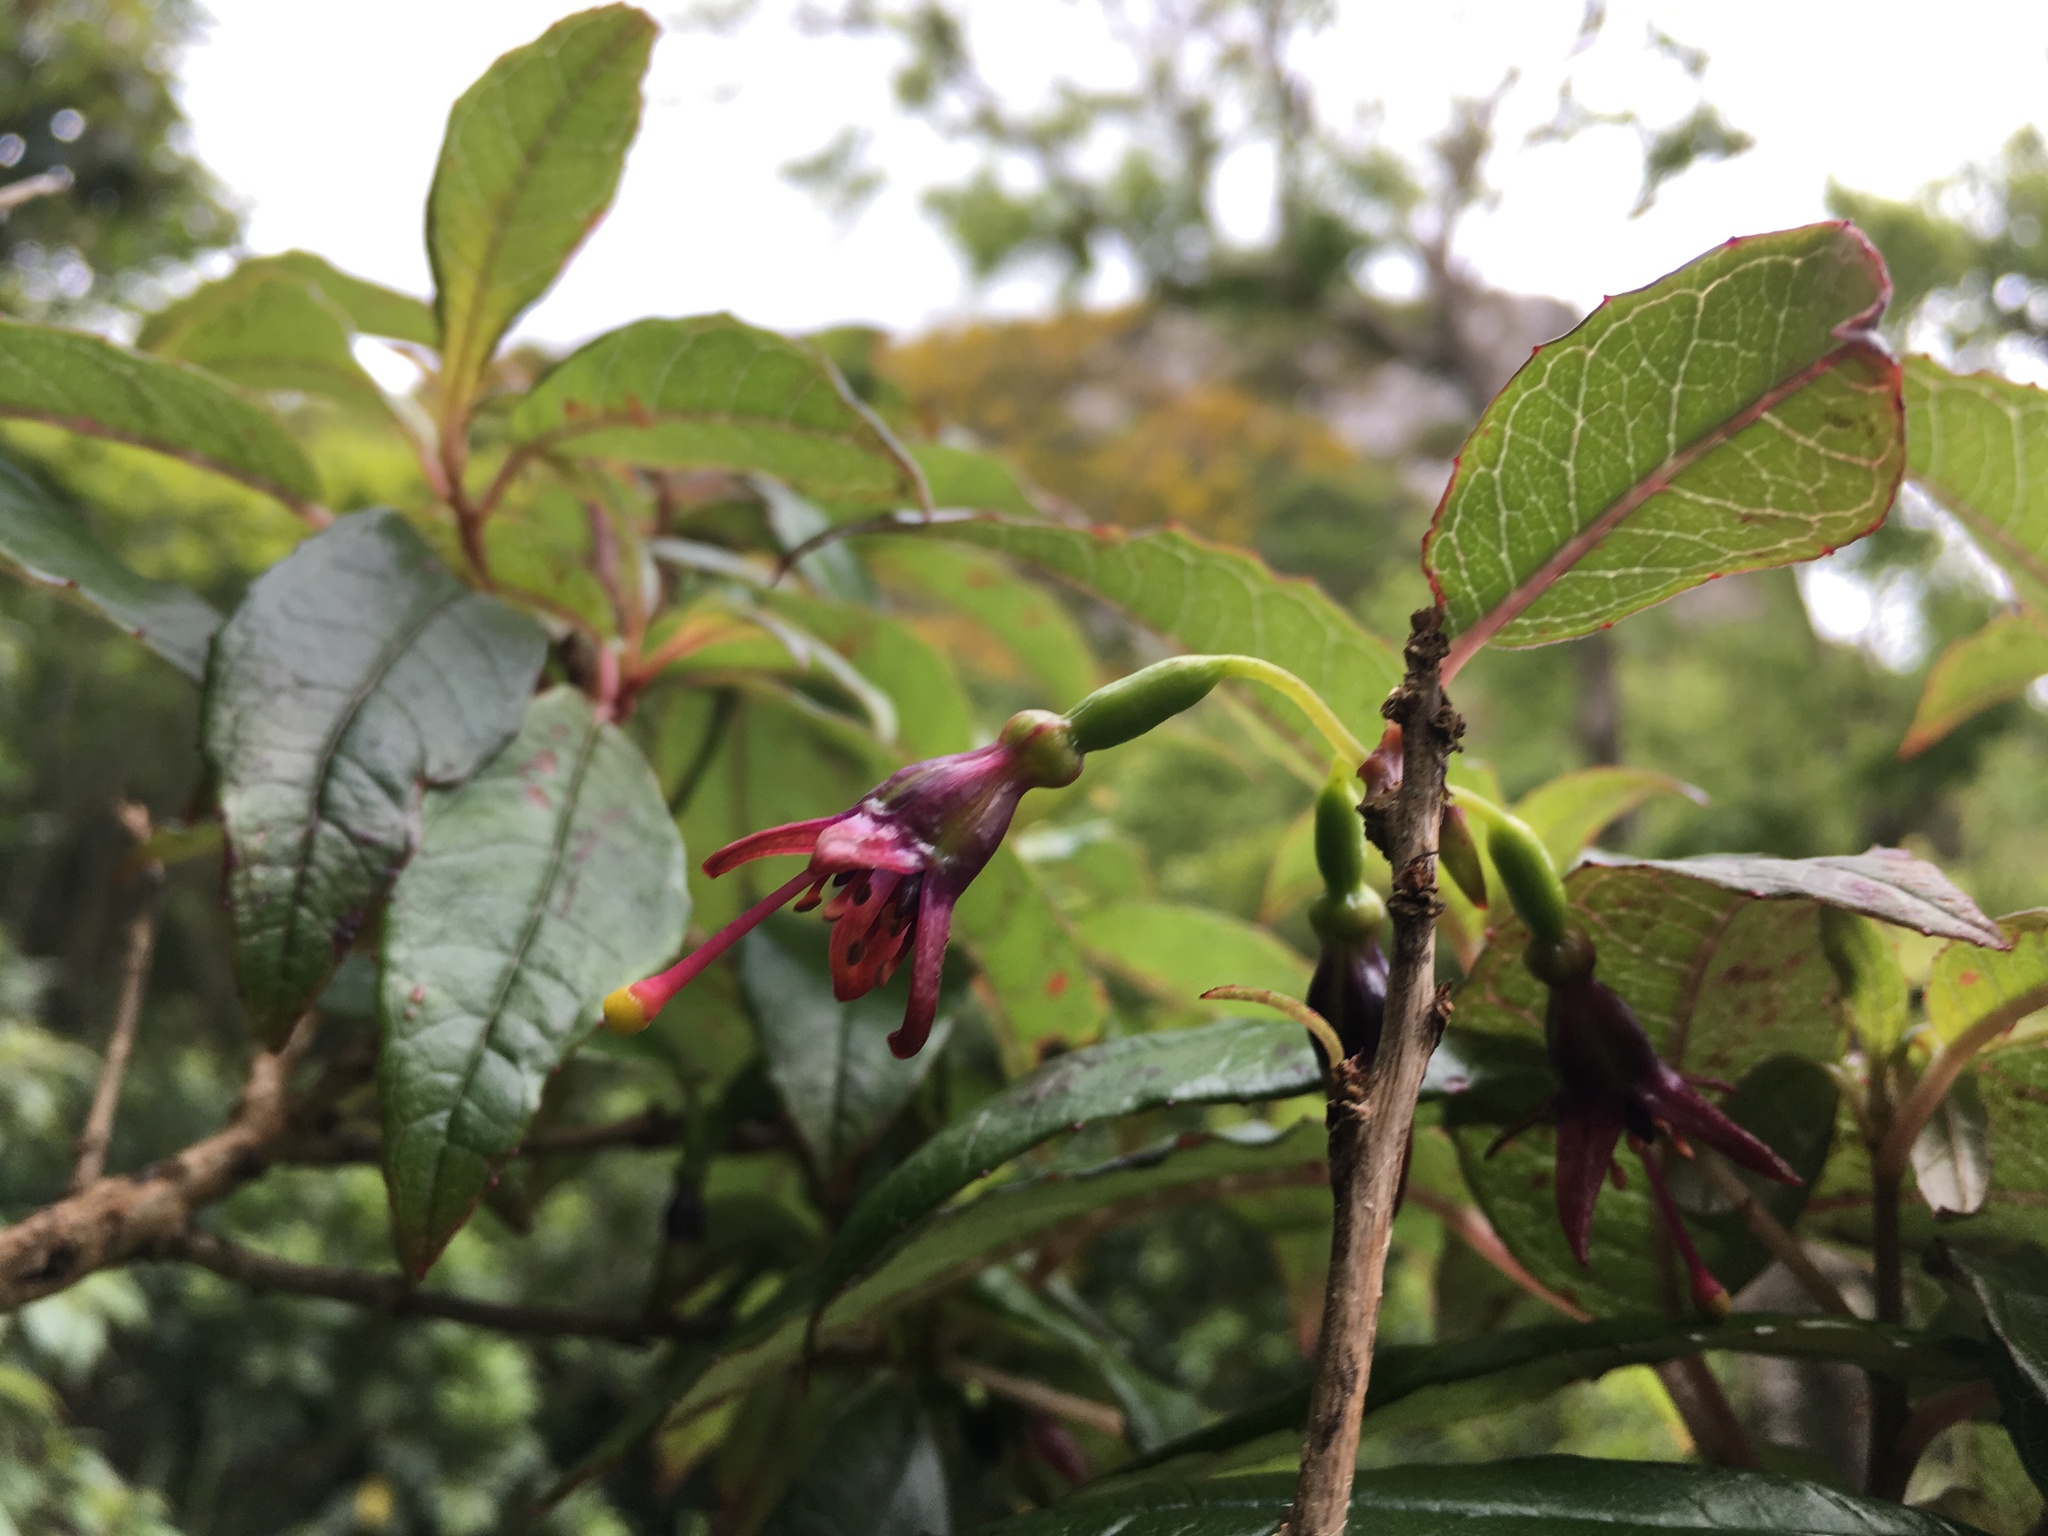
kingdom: Plantae
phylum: Tracheophyta
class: Magnoliopsida
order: Myrtales
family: Onagraceae
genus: Fuchsia
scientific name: Fuchsia excorticata
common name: Tree fuchsia
